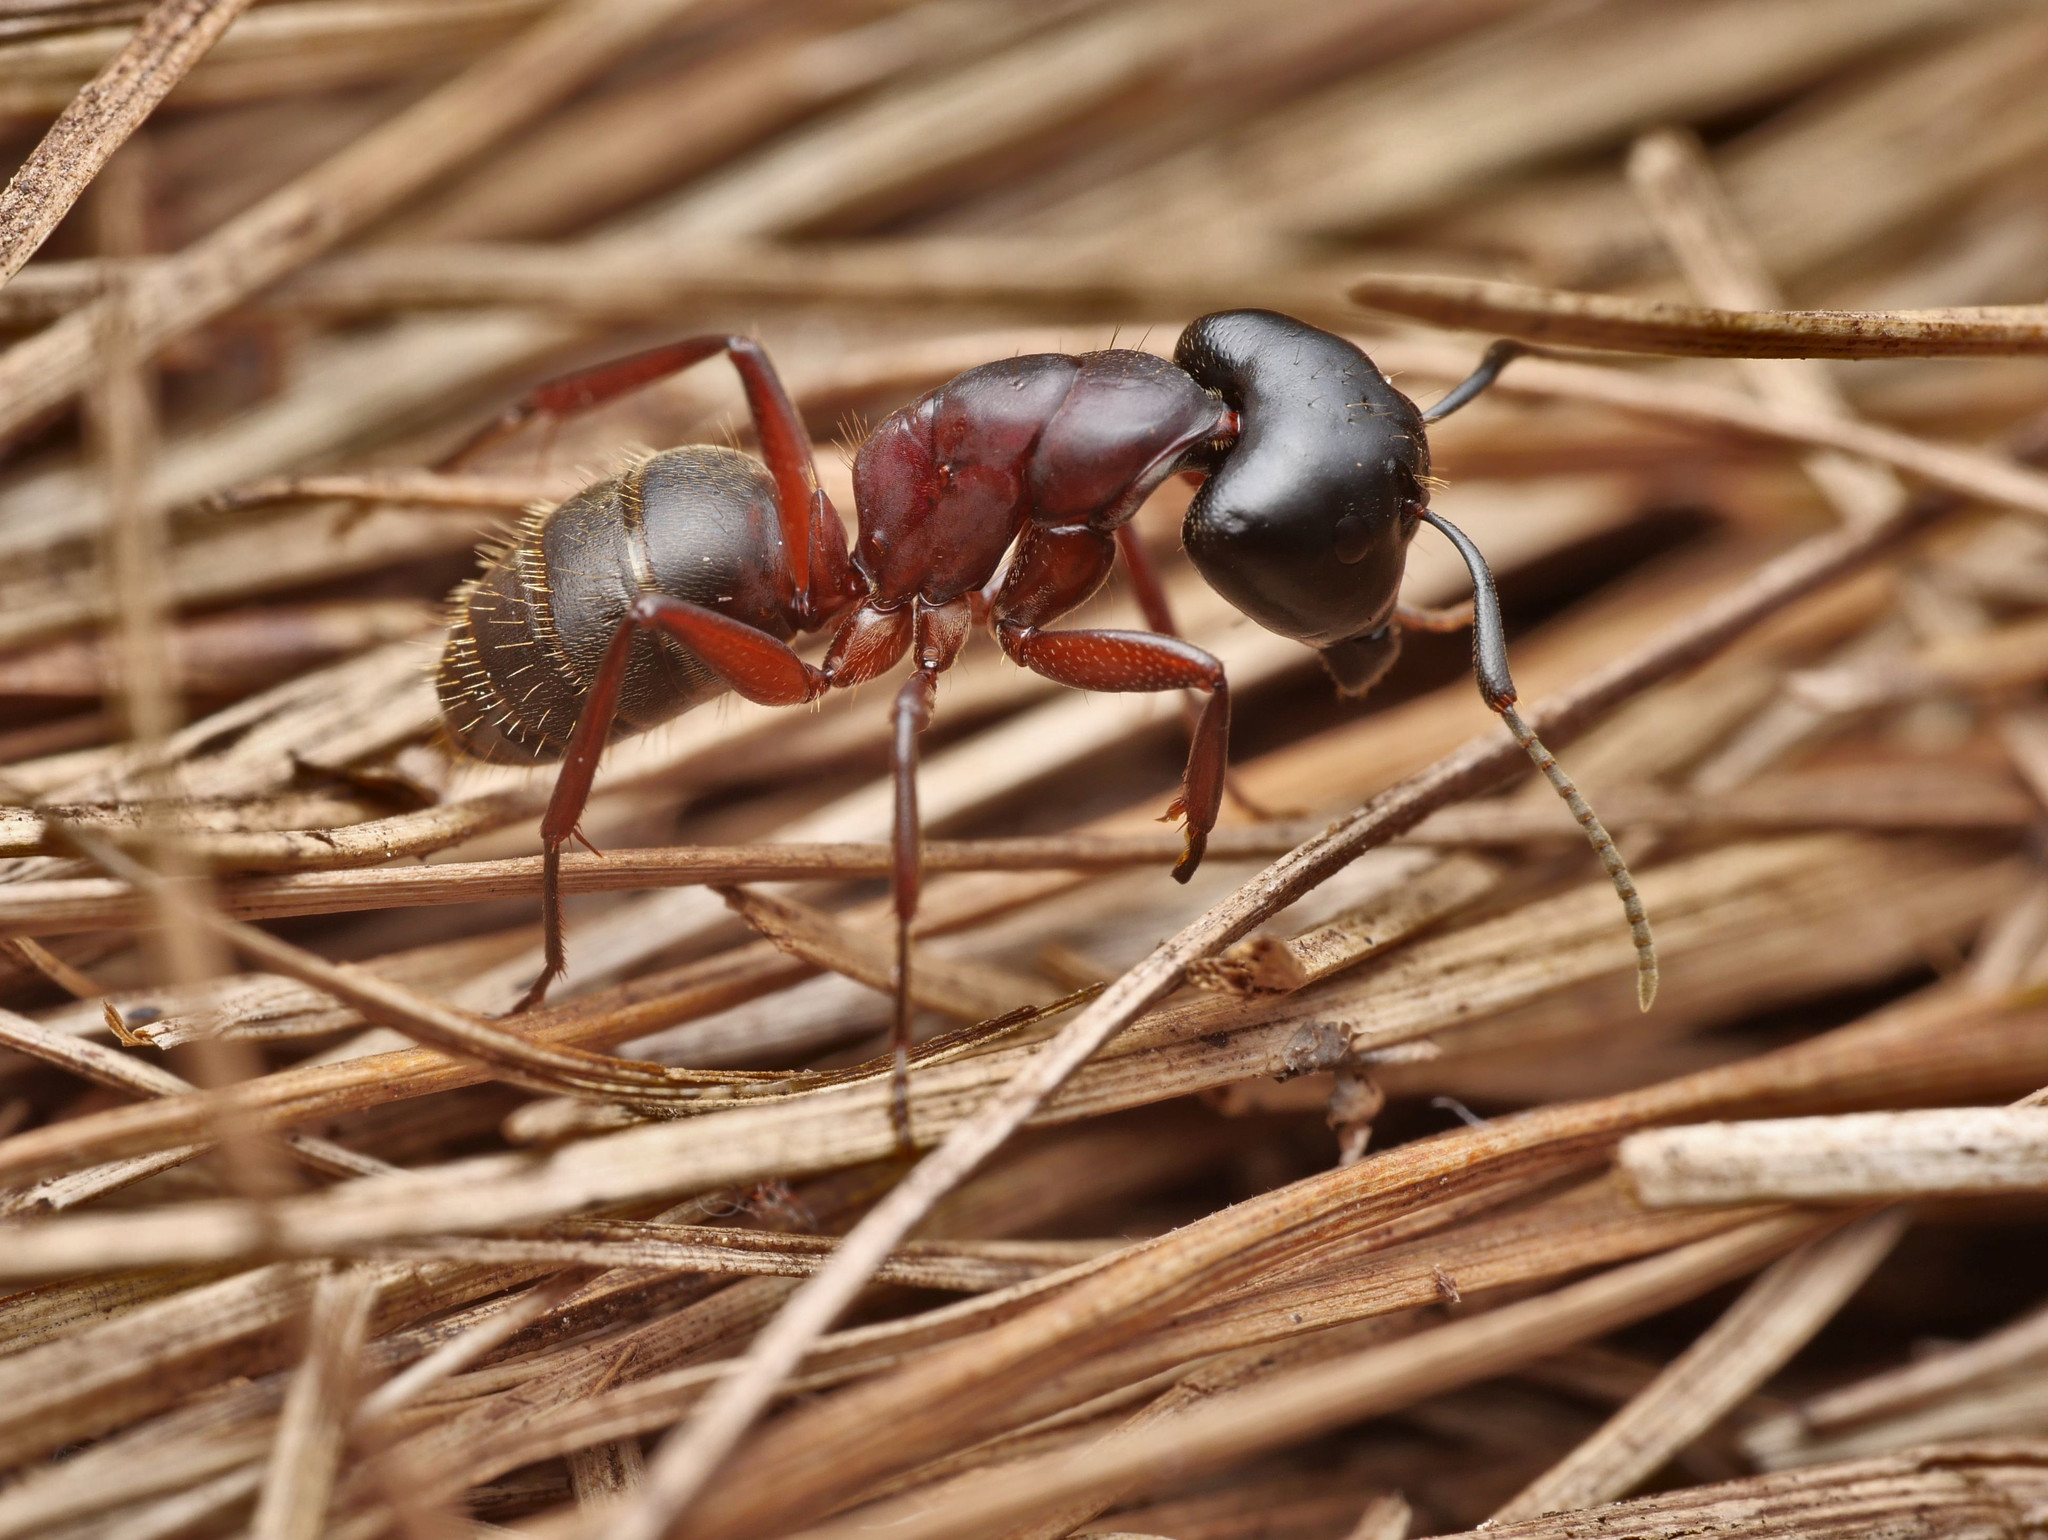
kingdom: Animalia
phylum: Arthropoda
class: Insecta
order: Hymenoptera
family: Formicidae
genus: Camponotus
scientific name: Camponotus herculeanus
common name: Hercules ant
